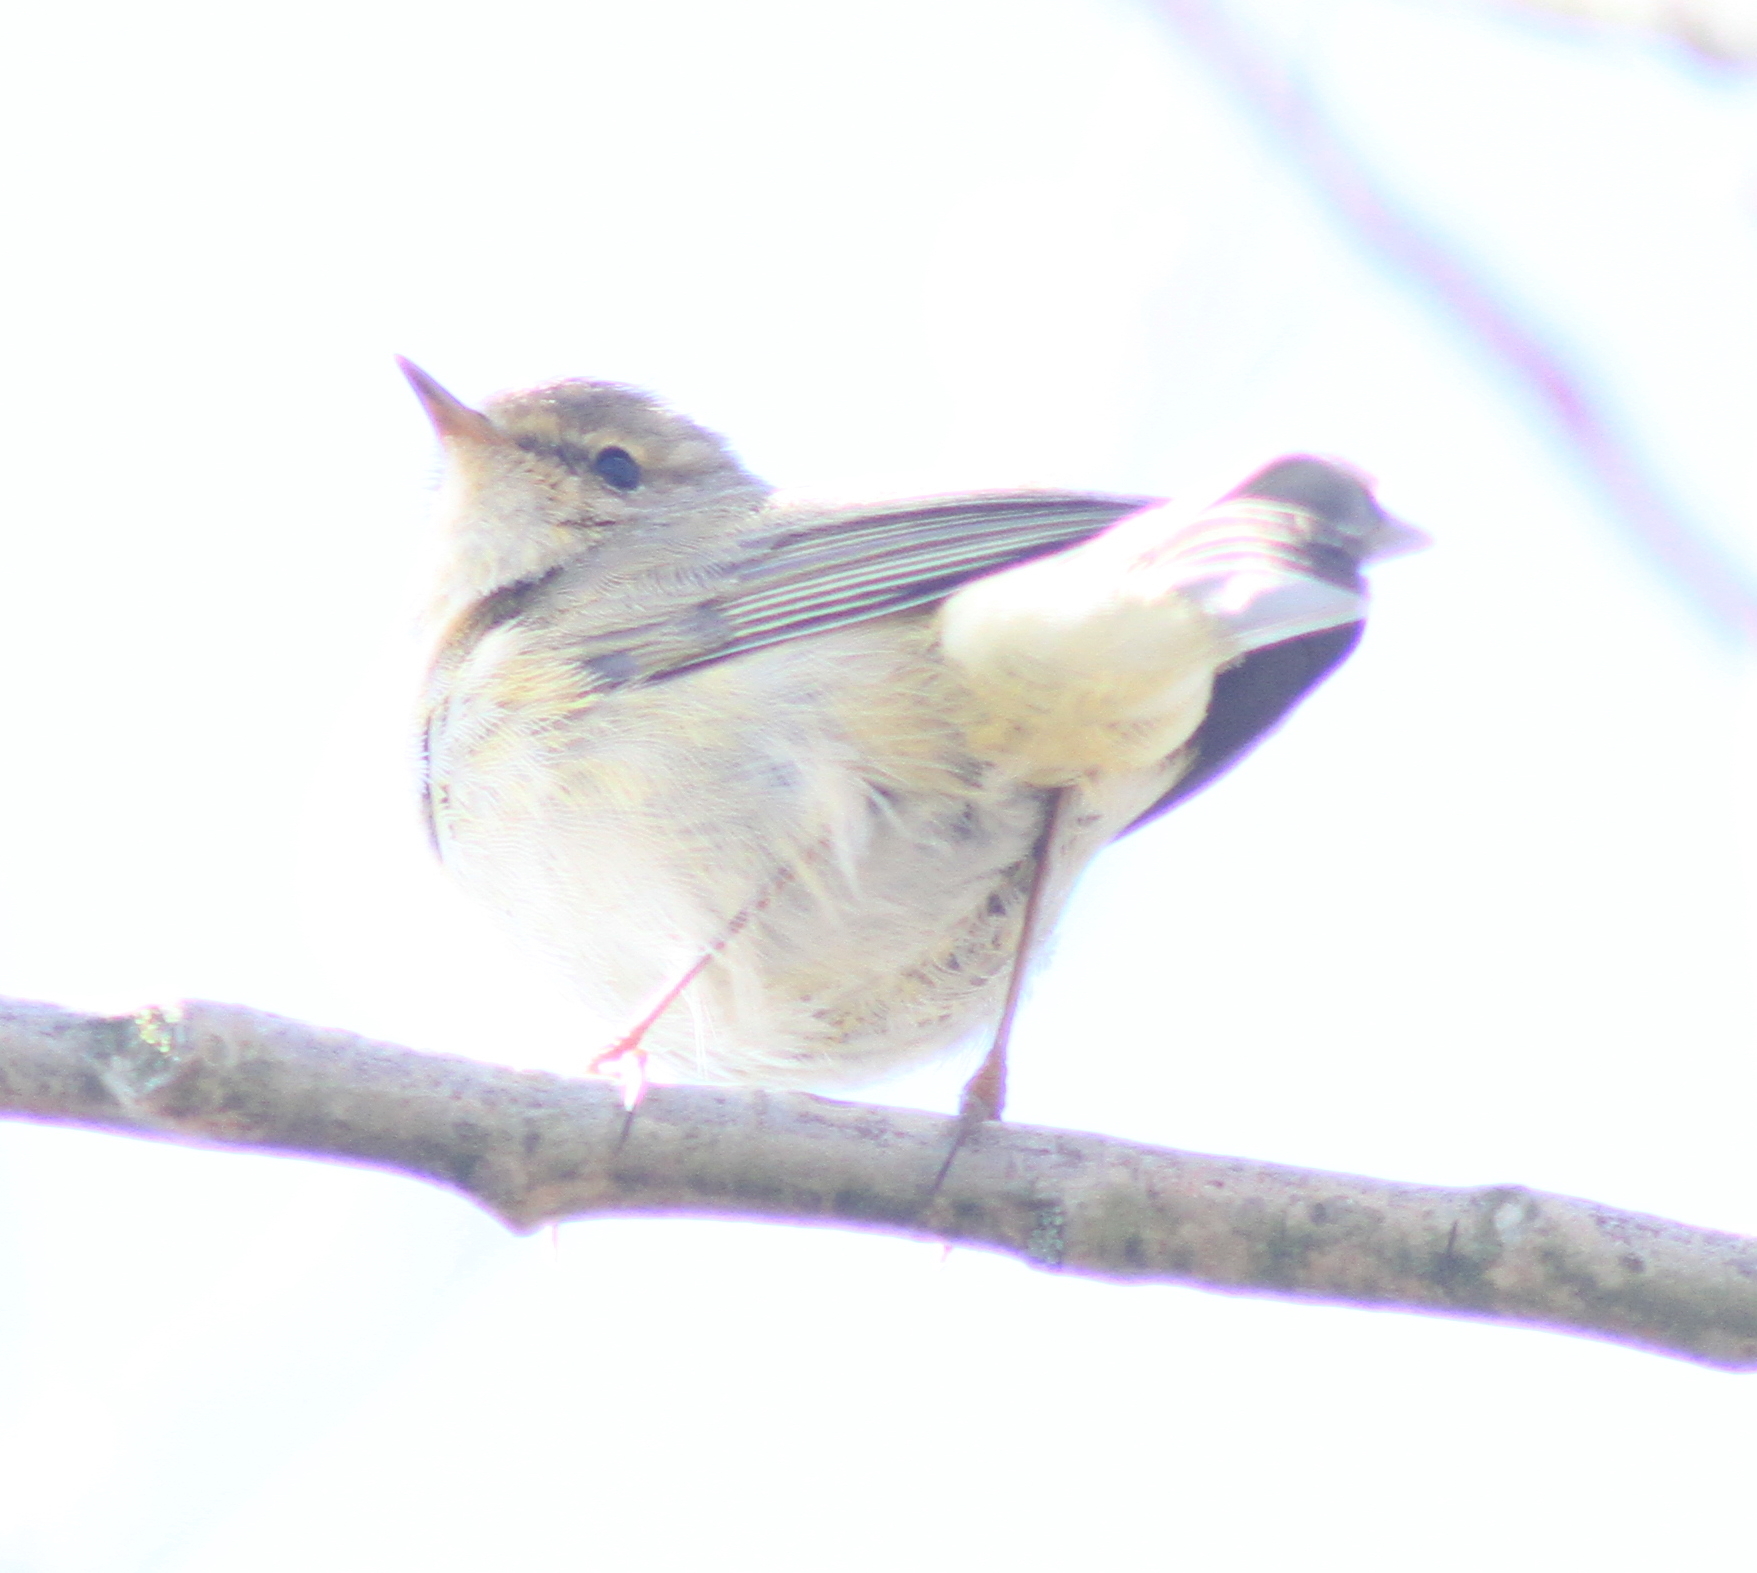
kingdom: Animalia
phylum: Chordata
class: Aves
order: Passeriformes
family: Phylloscopidae
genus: Phylloscopus
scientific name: Phylloscopus trochilus
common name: Willow warbler
